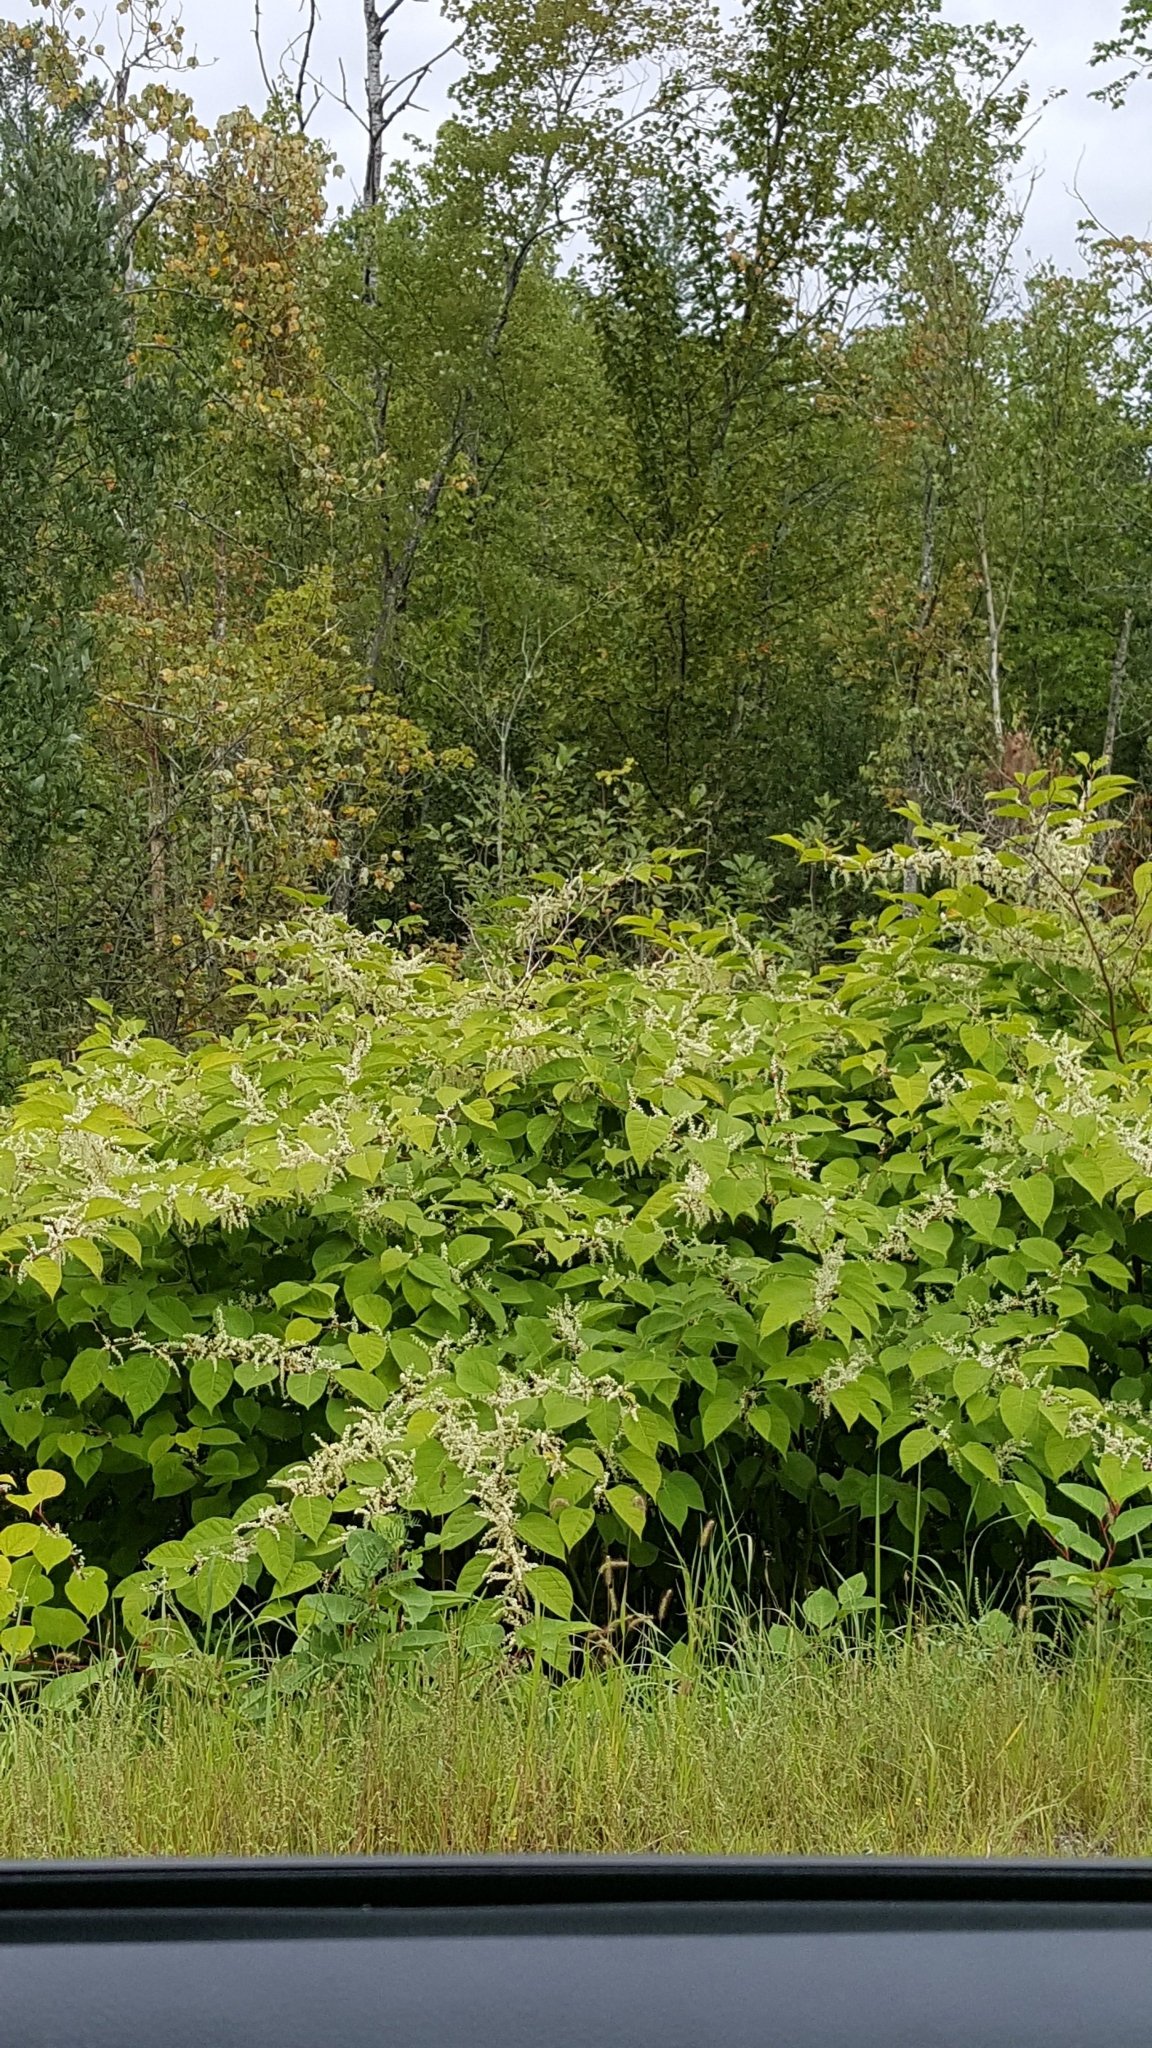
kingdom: Plantae
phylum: Tracheophyta
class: Magnoliopsida
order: Caryophyllales
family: Polygonaceae
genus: Reynoutria
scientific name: Reynoutria japonica
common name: Japanese knotweed
